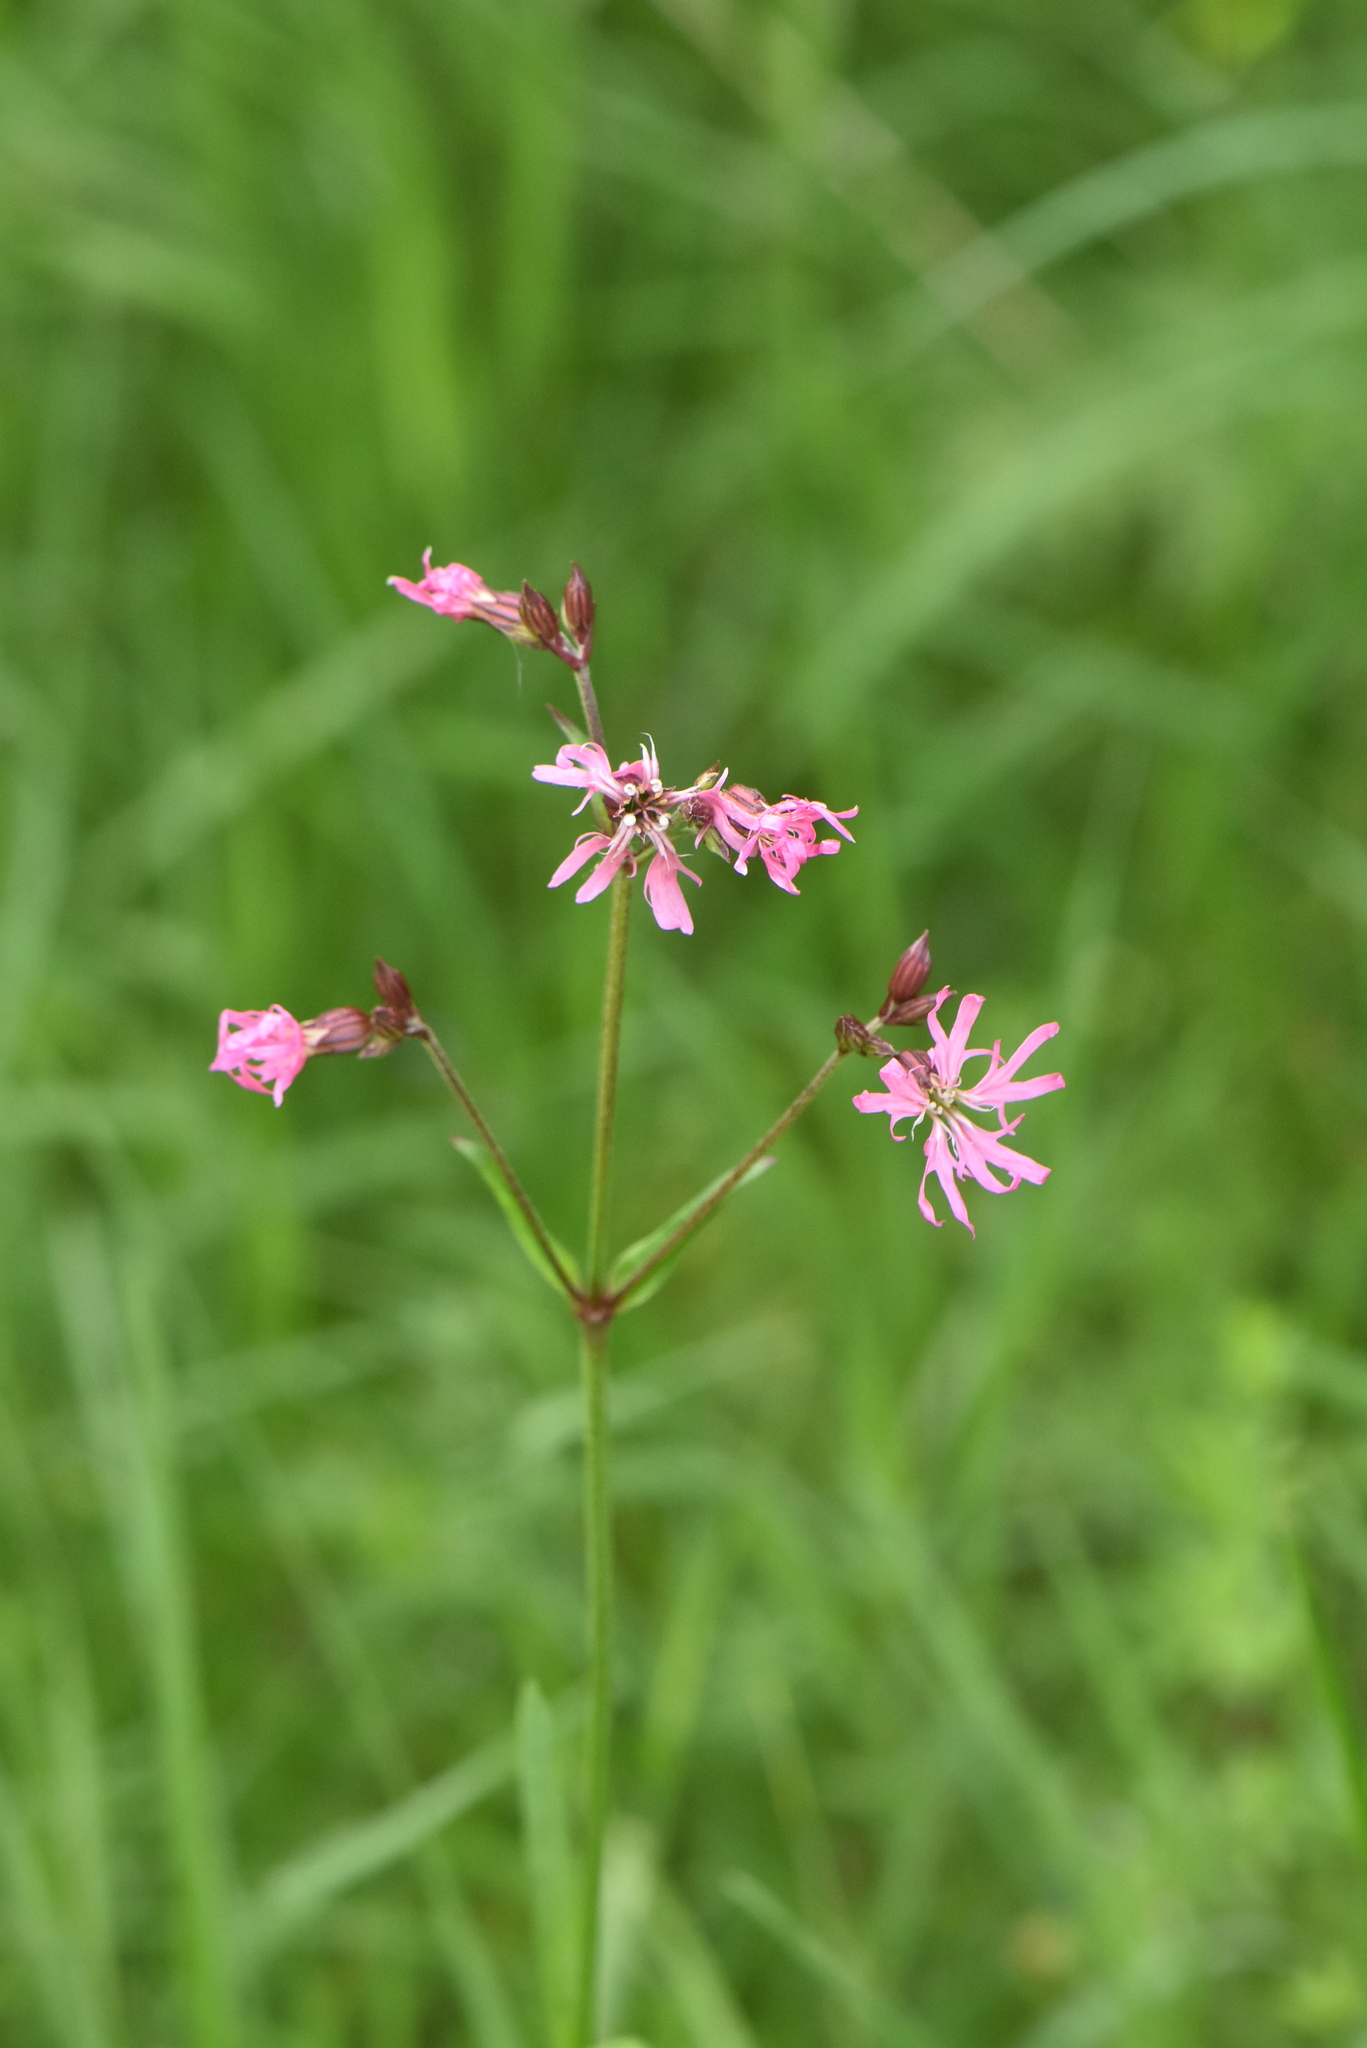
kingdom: Plantae
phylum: Tracheophyta
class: Magnoliopsida
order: Caryophyllales
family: Caryophyllaceae
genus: Silene
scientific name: Silene flos-cuculi
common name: Ragged-robin
